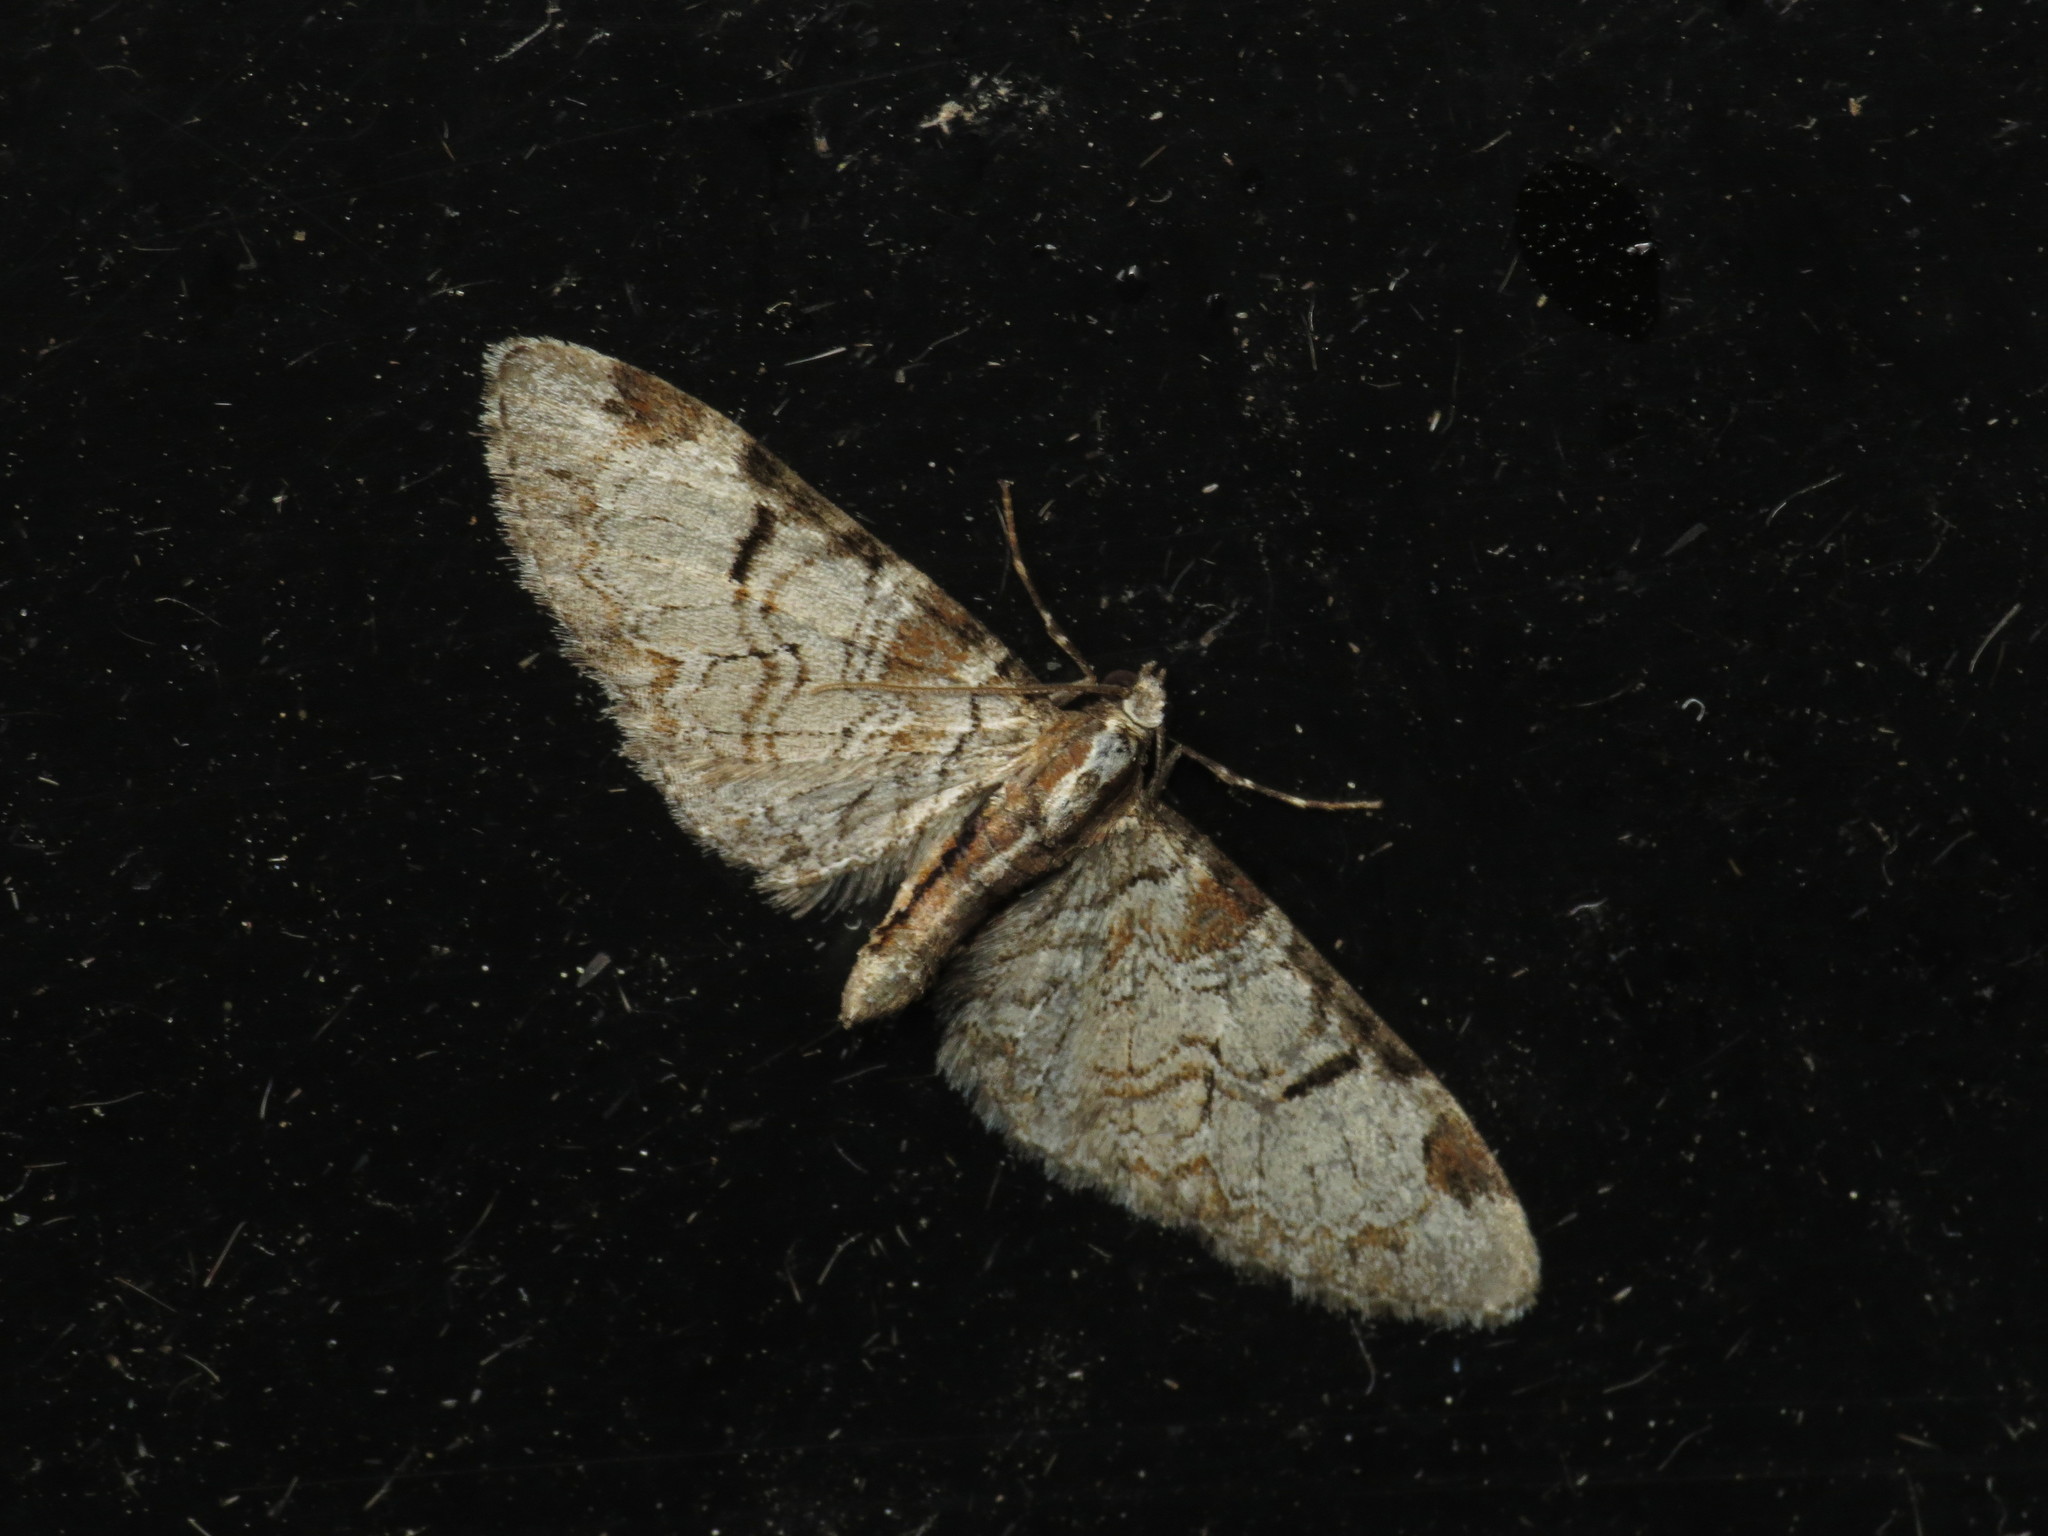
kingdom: Animalia
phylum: Arthropoda
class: Insecta
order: Lepidoptera
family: Geometridae
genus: Eupithecia
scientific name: Eupithecia insigniata
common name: Pinion-spotted pug
